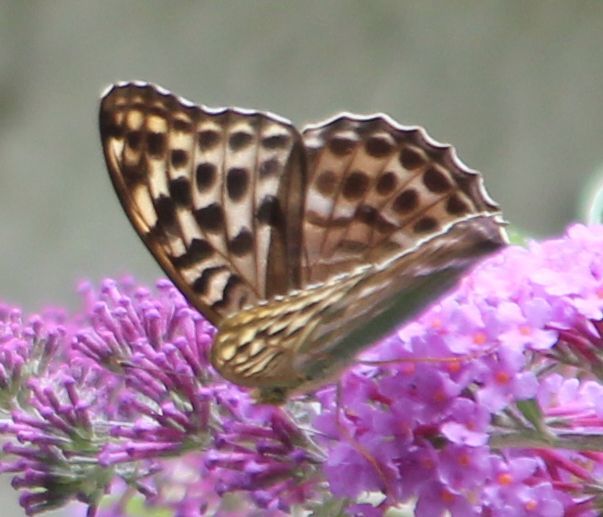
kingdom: Animalia
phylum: Arthropoda
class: Insecta
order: Lepidoptera
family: Nymphalidae
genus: Argynnis
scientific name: Argynnis paphia
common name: Silver-washed fritillary
